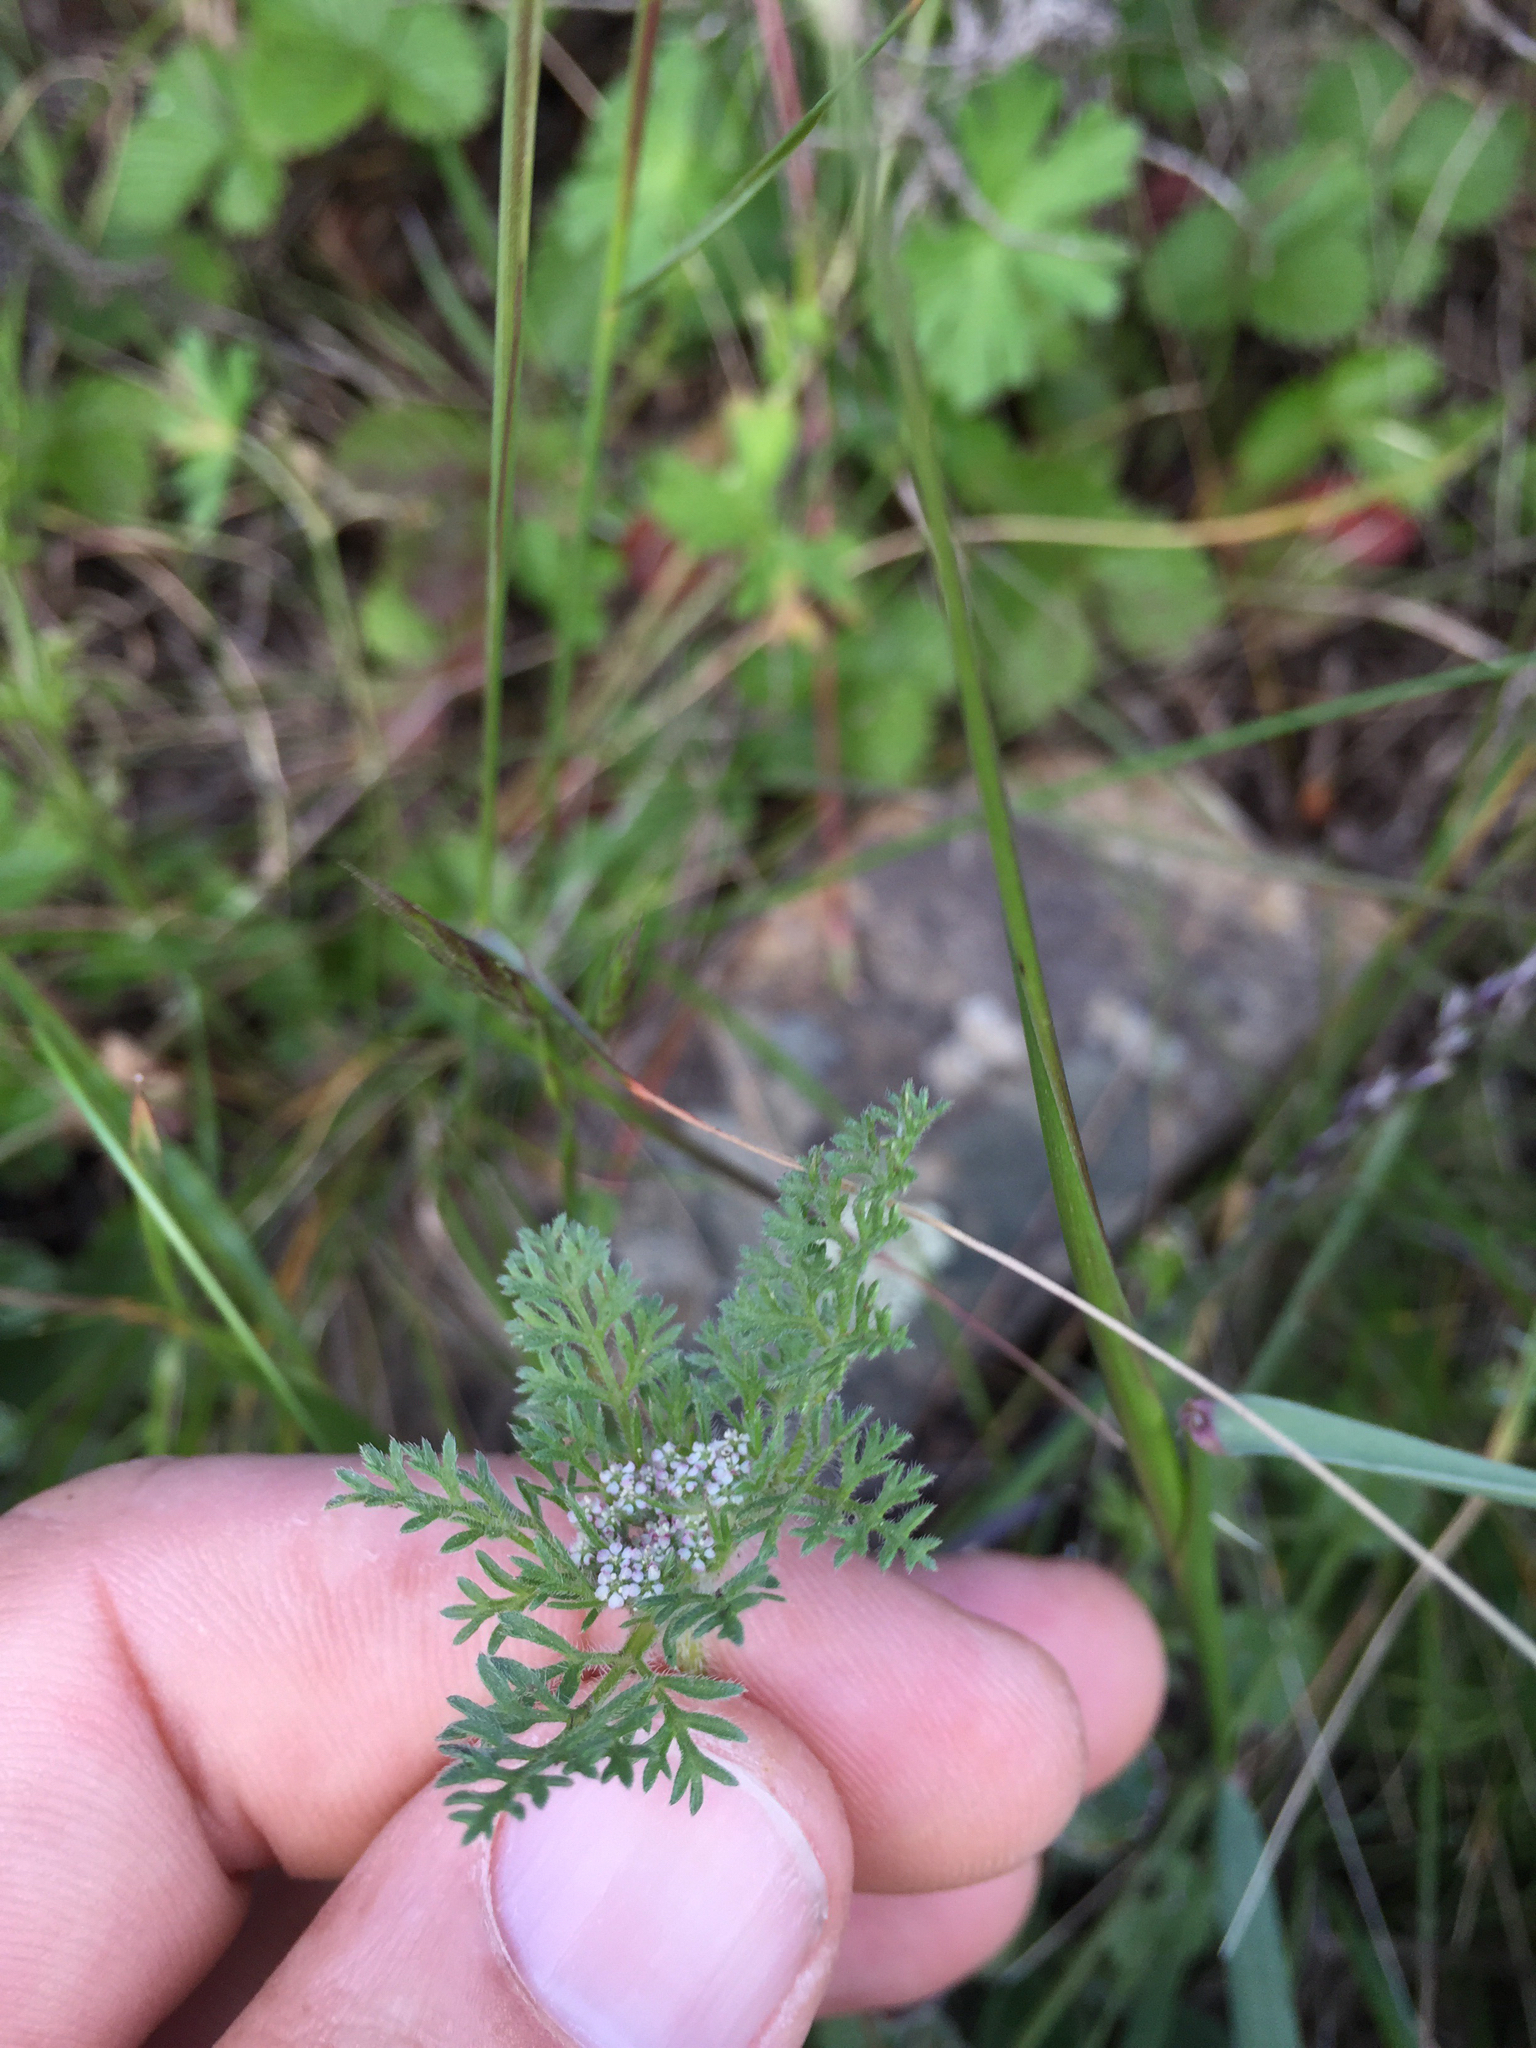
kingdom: Plantae
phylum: Tracheophyta
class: Magnoliopsida
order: Apiales
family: Apiaceae
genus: Daucus
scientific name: Daucus pusillus
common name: Southwest wild carrot
